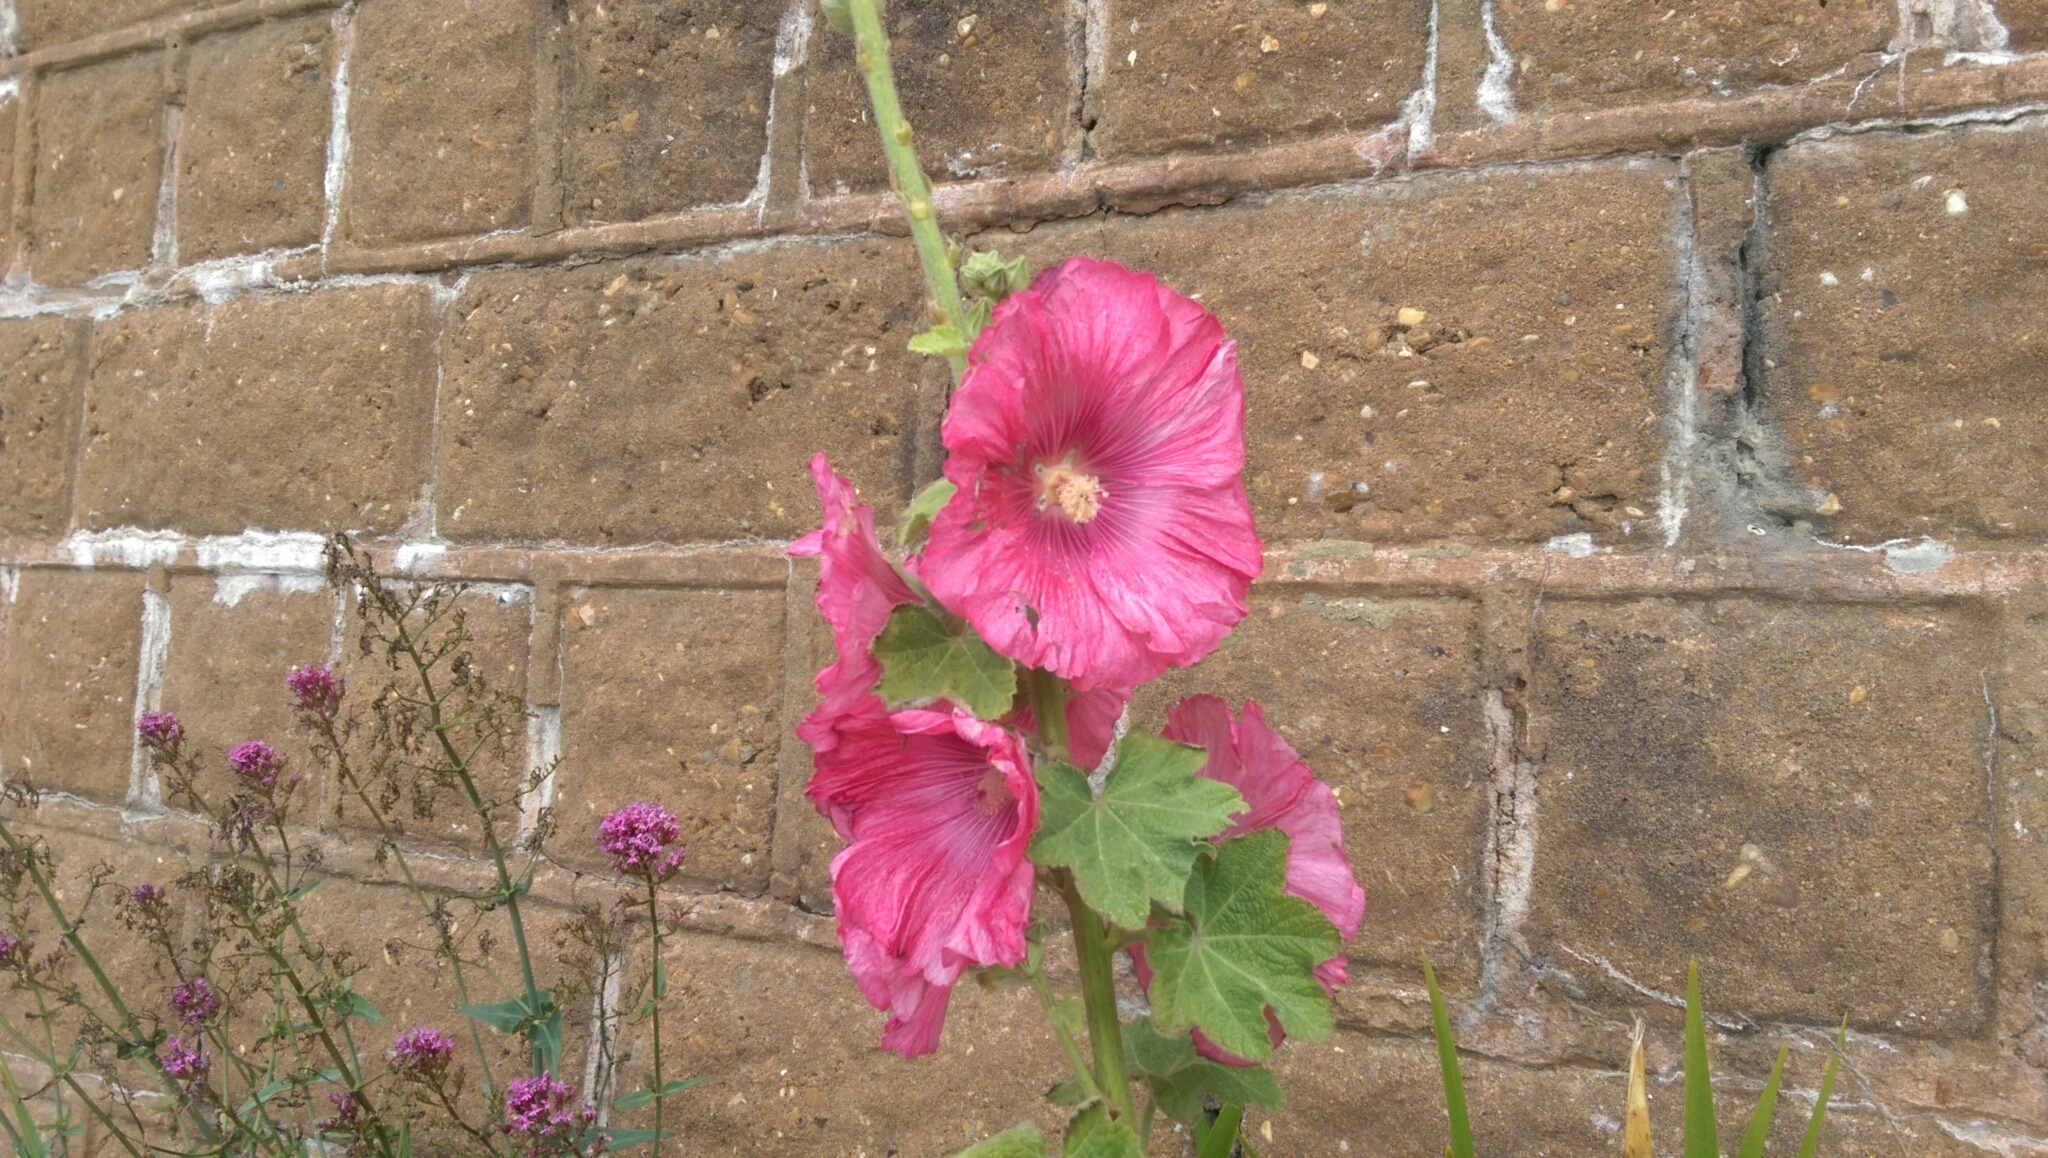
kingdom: Plantae
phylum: Tracheophyta
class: Magnoliopsida
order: Malvales
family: Malvaceae
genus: Alcea
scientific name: Alcea rosea
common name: Hollyhock
